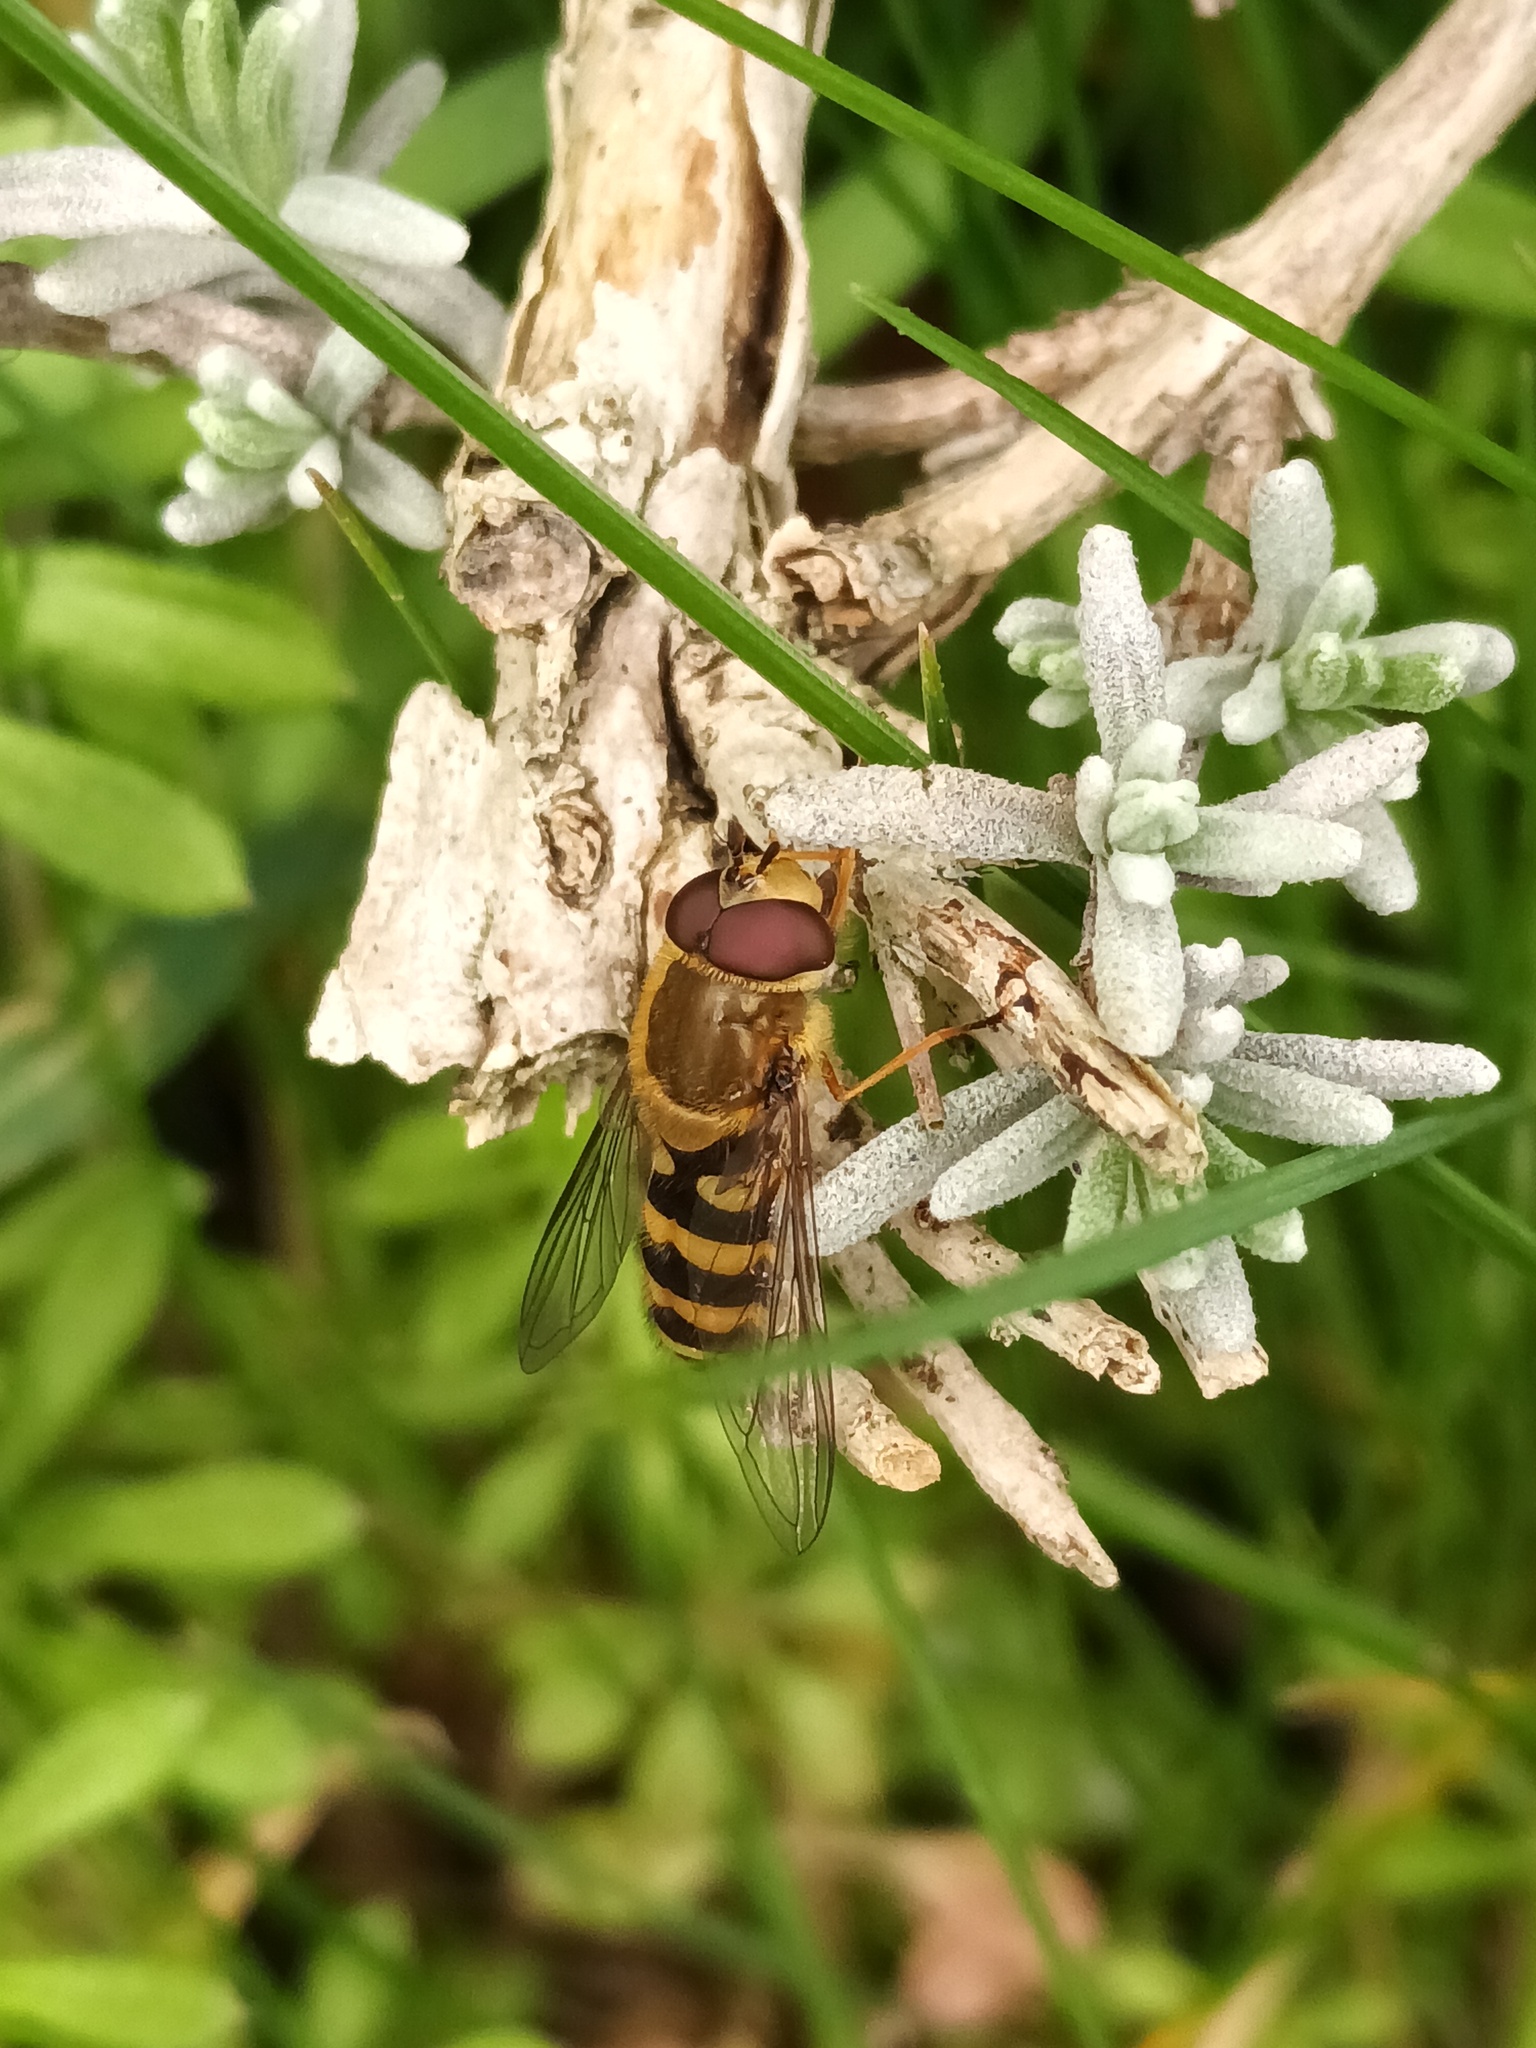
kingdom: Animalia
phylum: Arthropoda
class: Insecta
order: Diptera
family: Syrphidae
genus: Syrphus
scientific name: Syrphus
